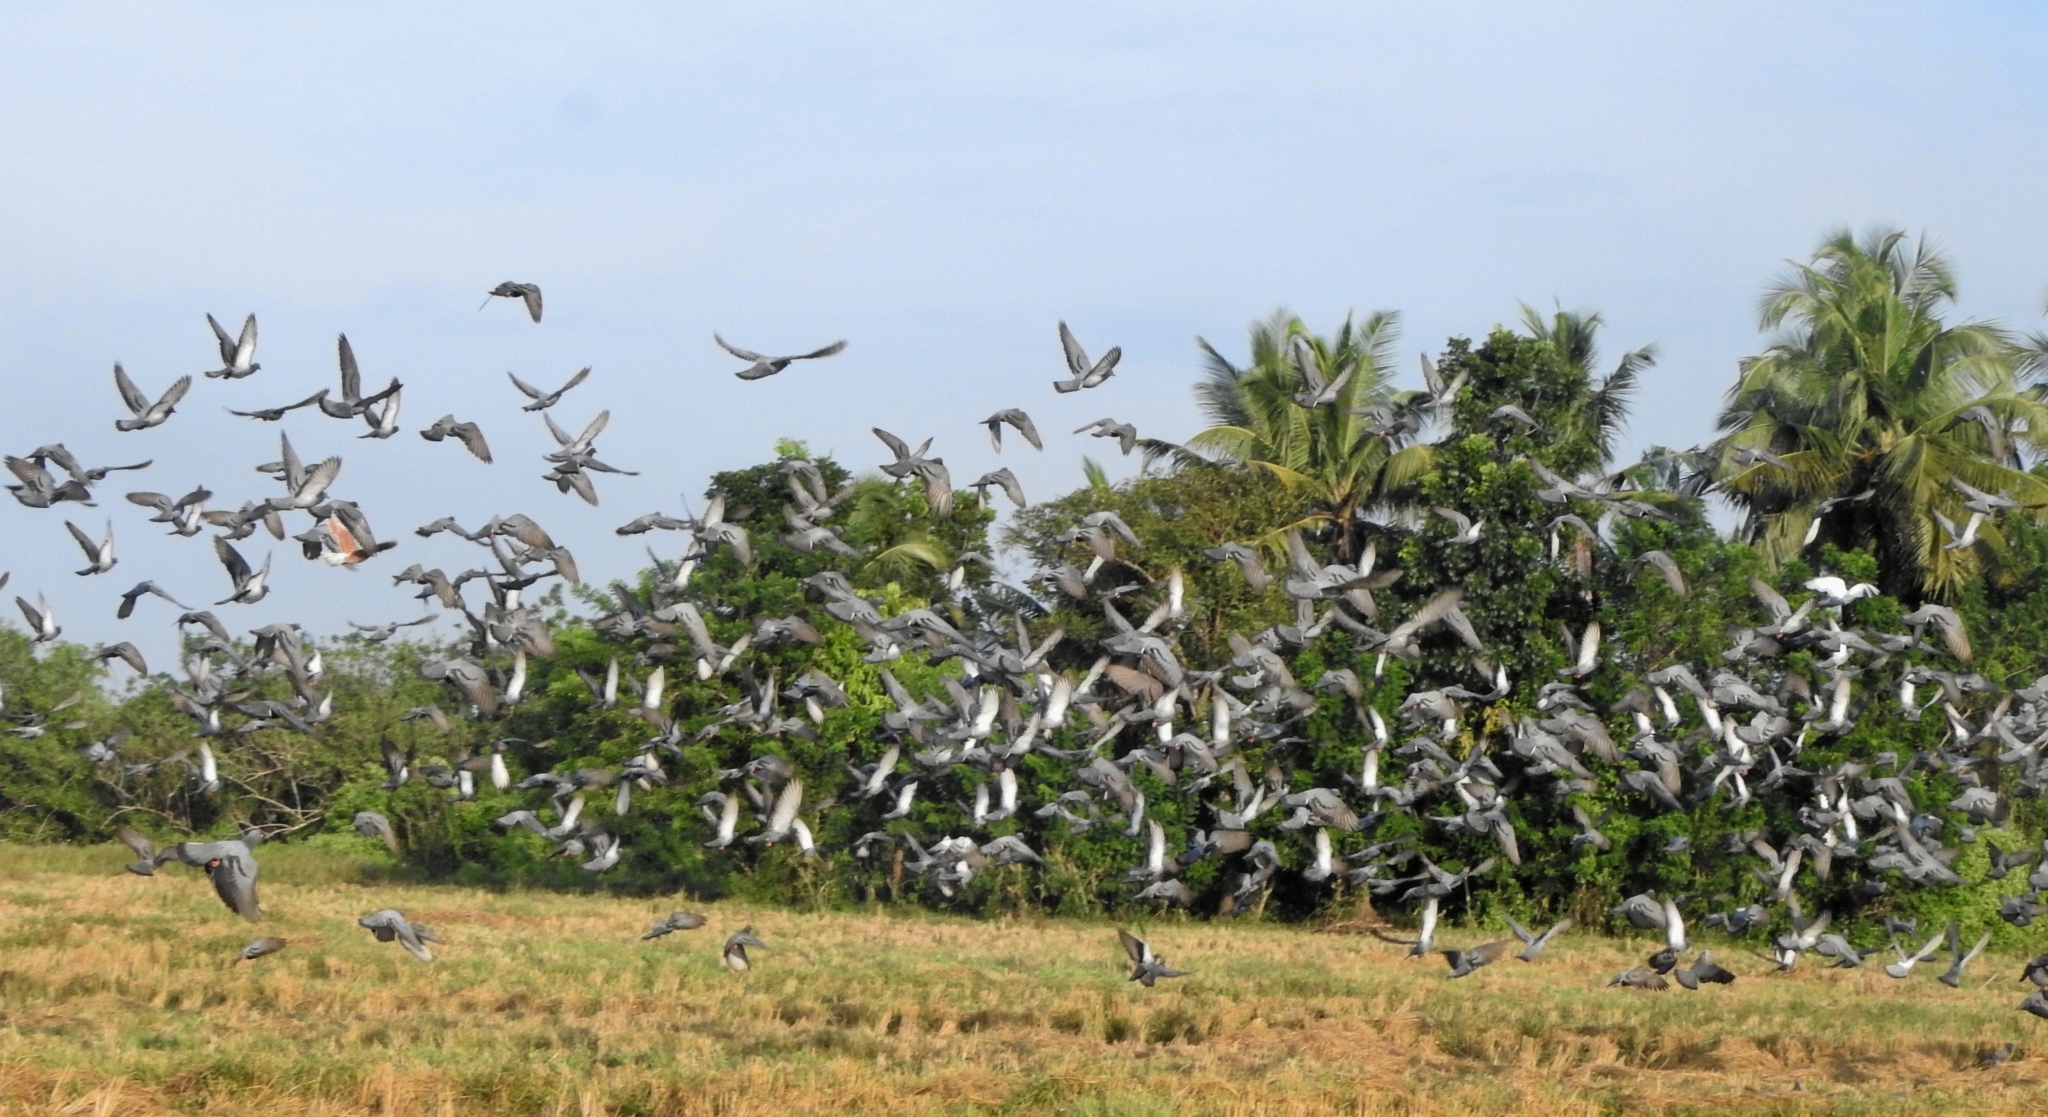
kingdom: Animalia
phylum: Chordata
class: Aves
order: Columbiformes
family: Columbidae
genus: Columba
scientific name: Columba livia
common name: Rock pigeon
